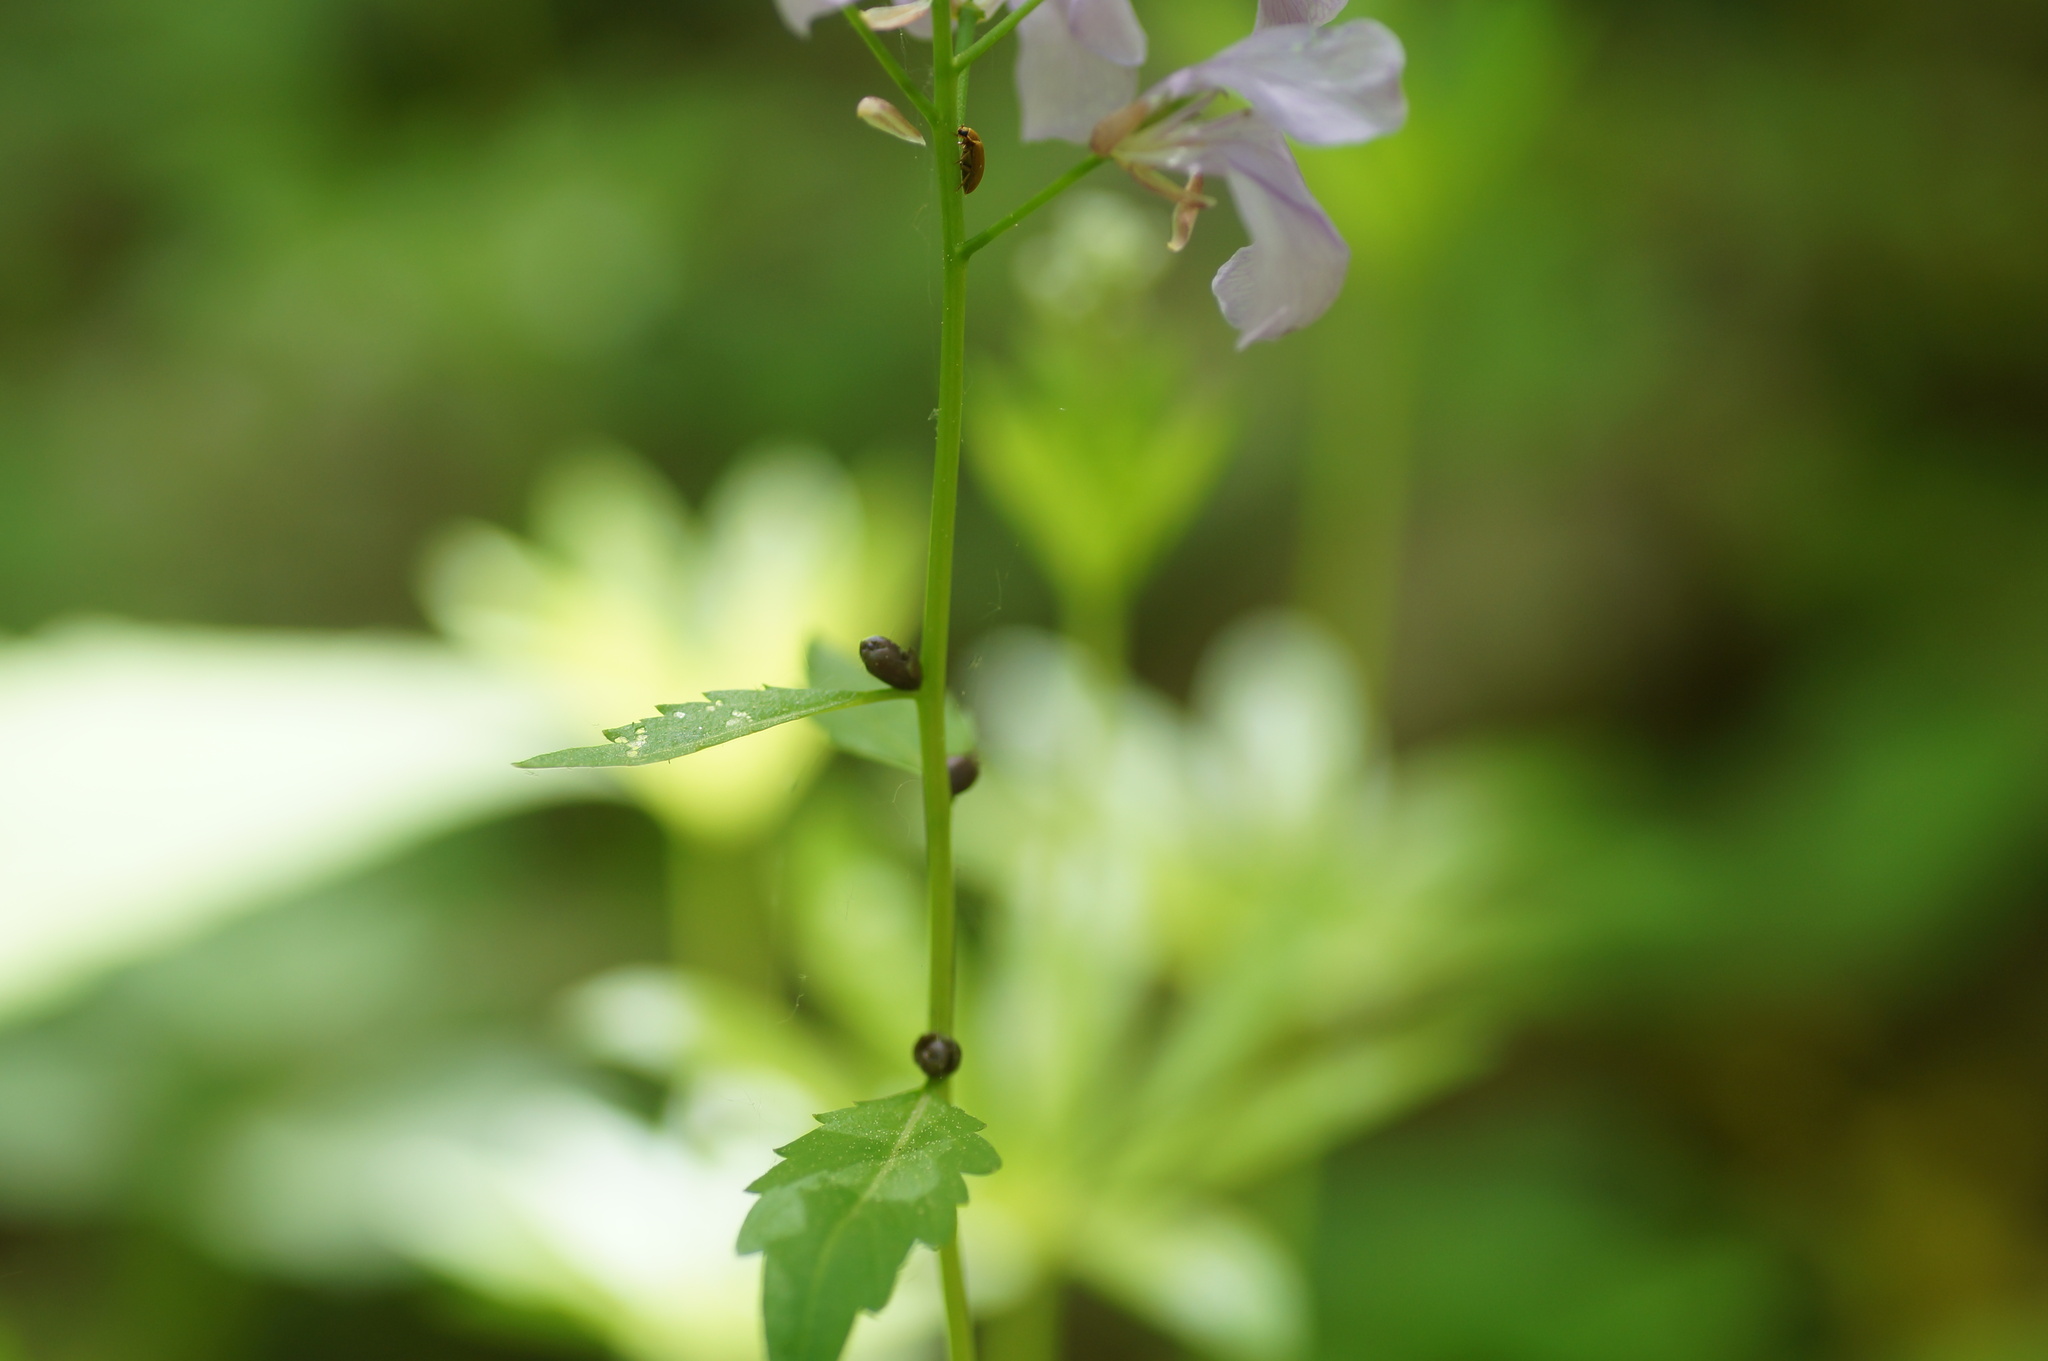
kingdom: Plantae
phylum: Tracheophyta
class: Magnoliopsida
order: Brassicales
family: Brassicaceae
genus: Cardamine
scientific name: Cardamine bulbifera
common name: Coralroot bittercress
